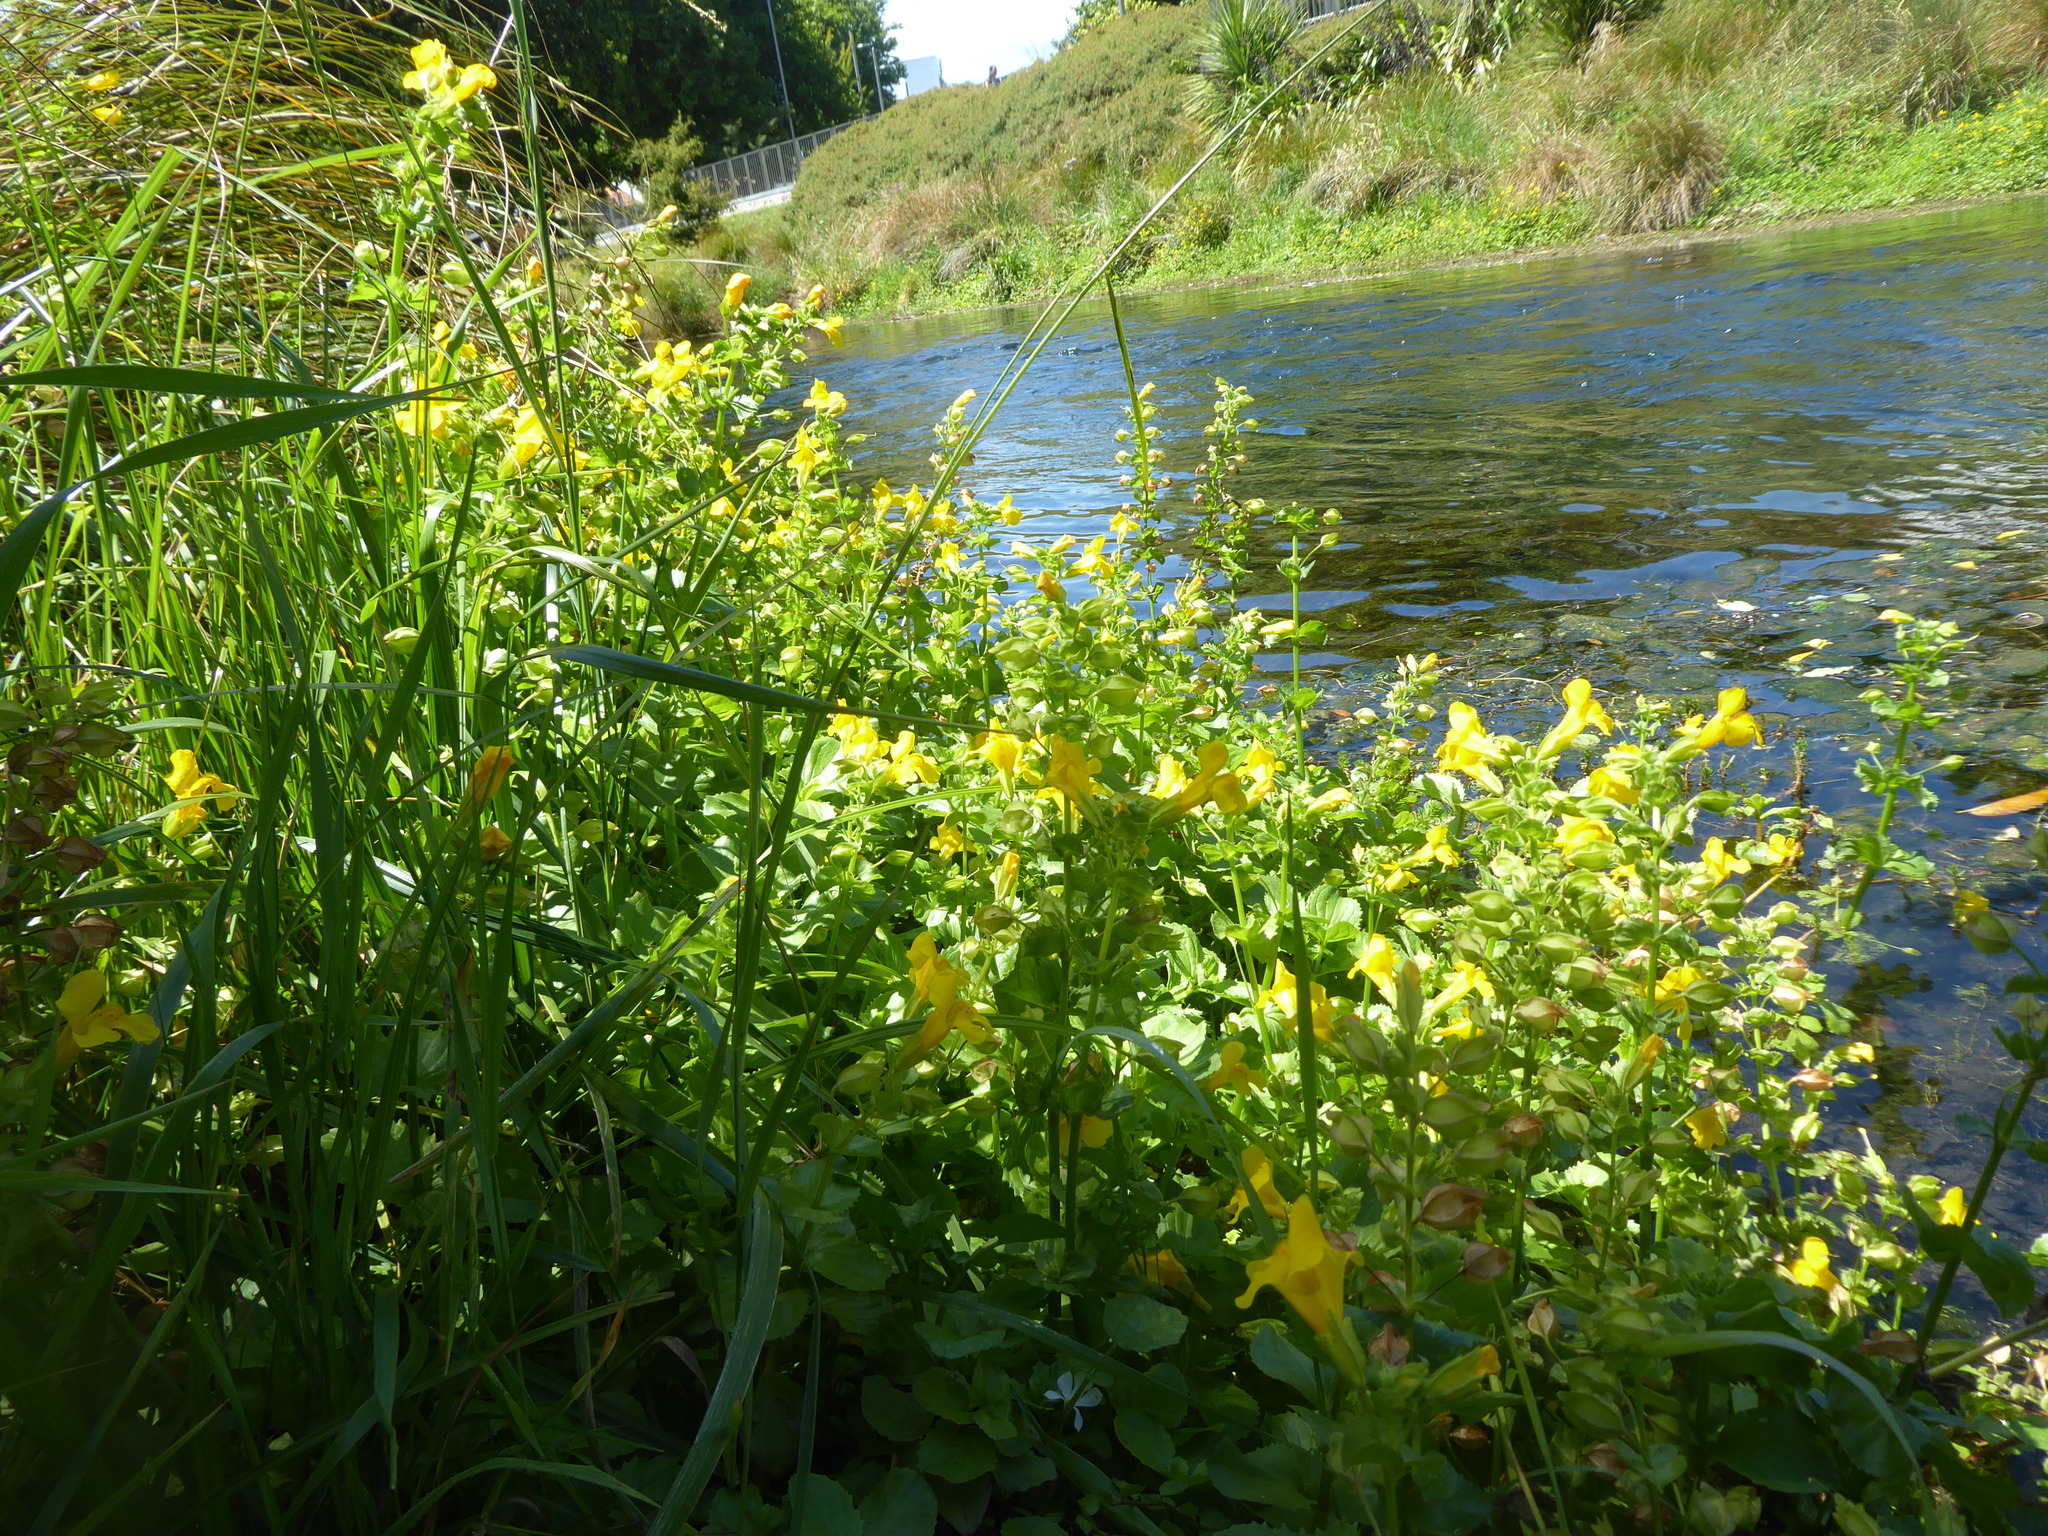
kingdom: Plantae
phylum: Tracheophyta
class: Magnoliopsida
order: Lamiales
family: Phrymaceae
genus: Erythranthe
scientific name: Erythranthe guttata
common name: Monkeyflower
